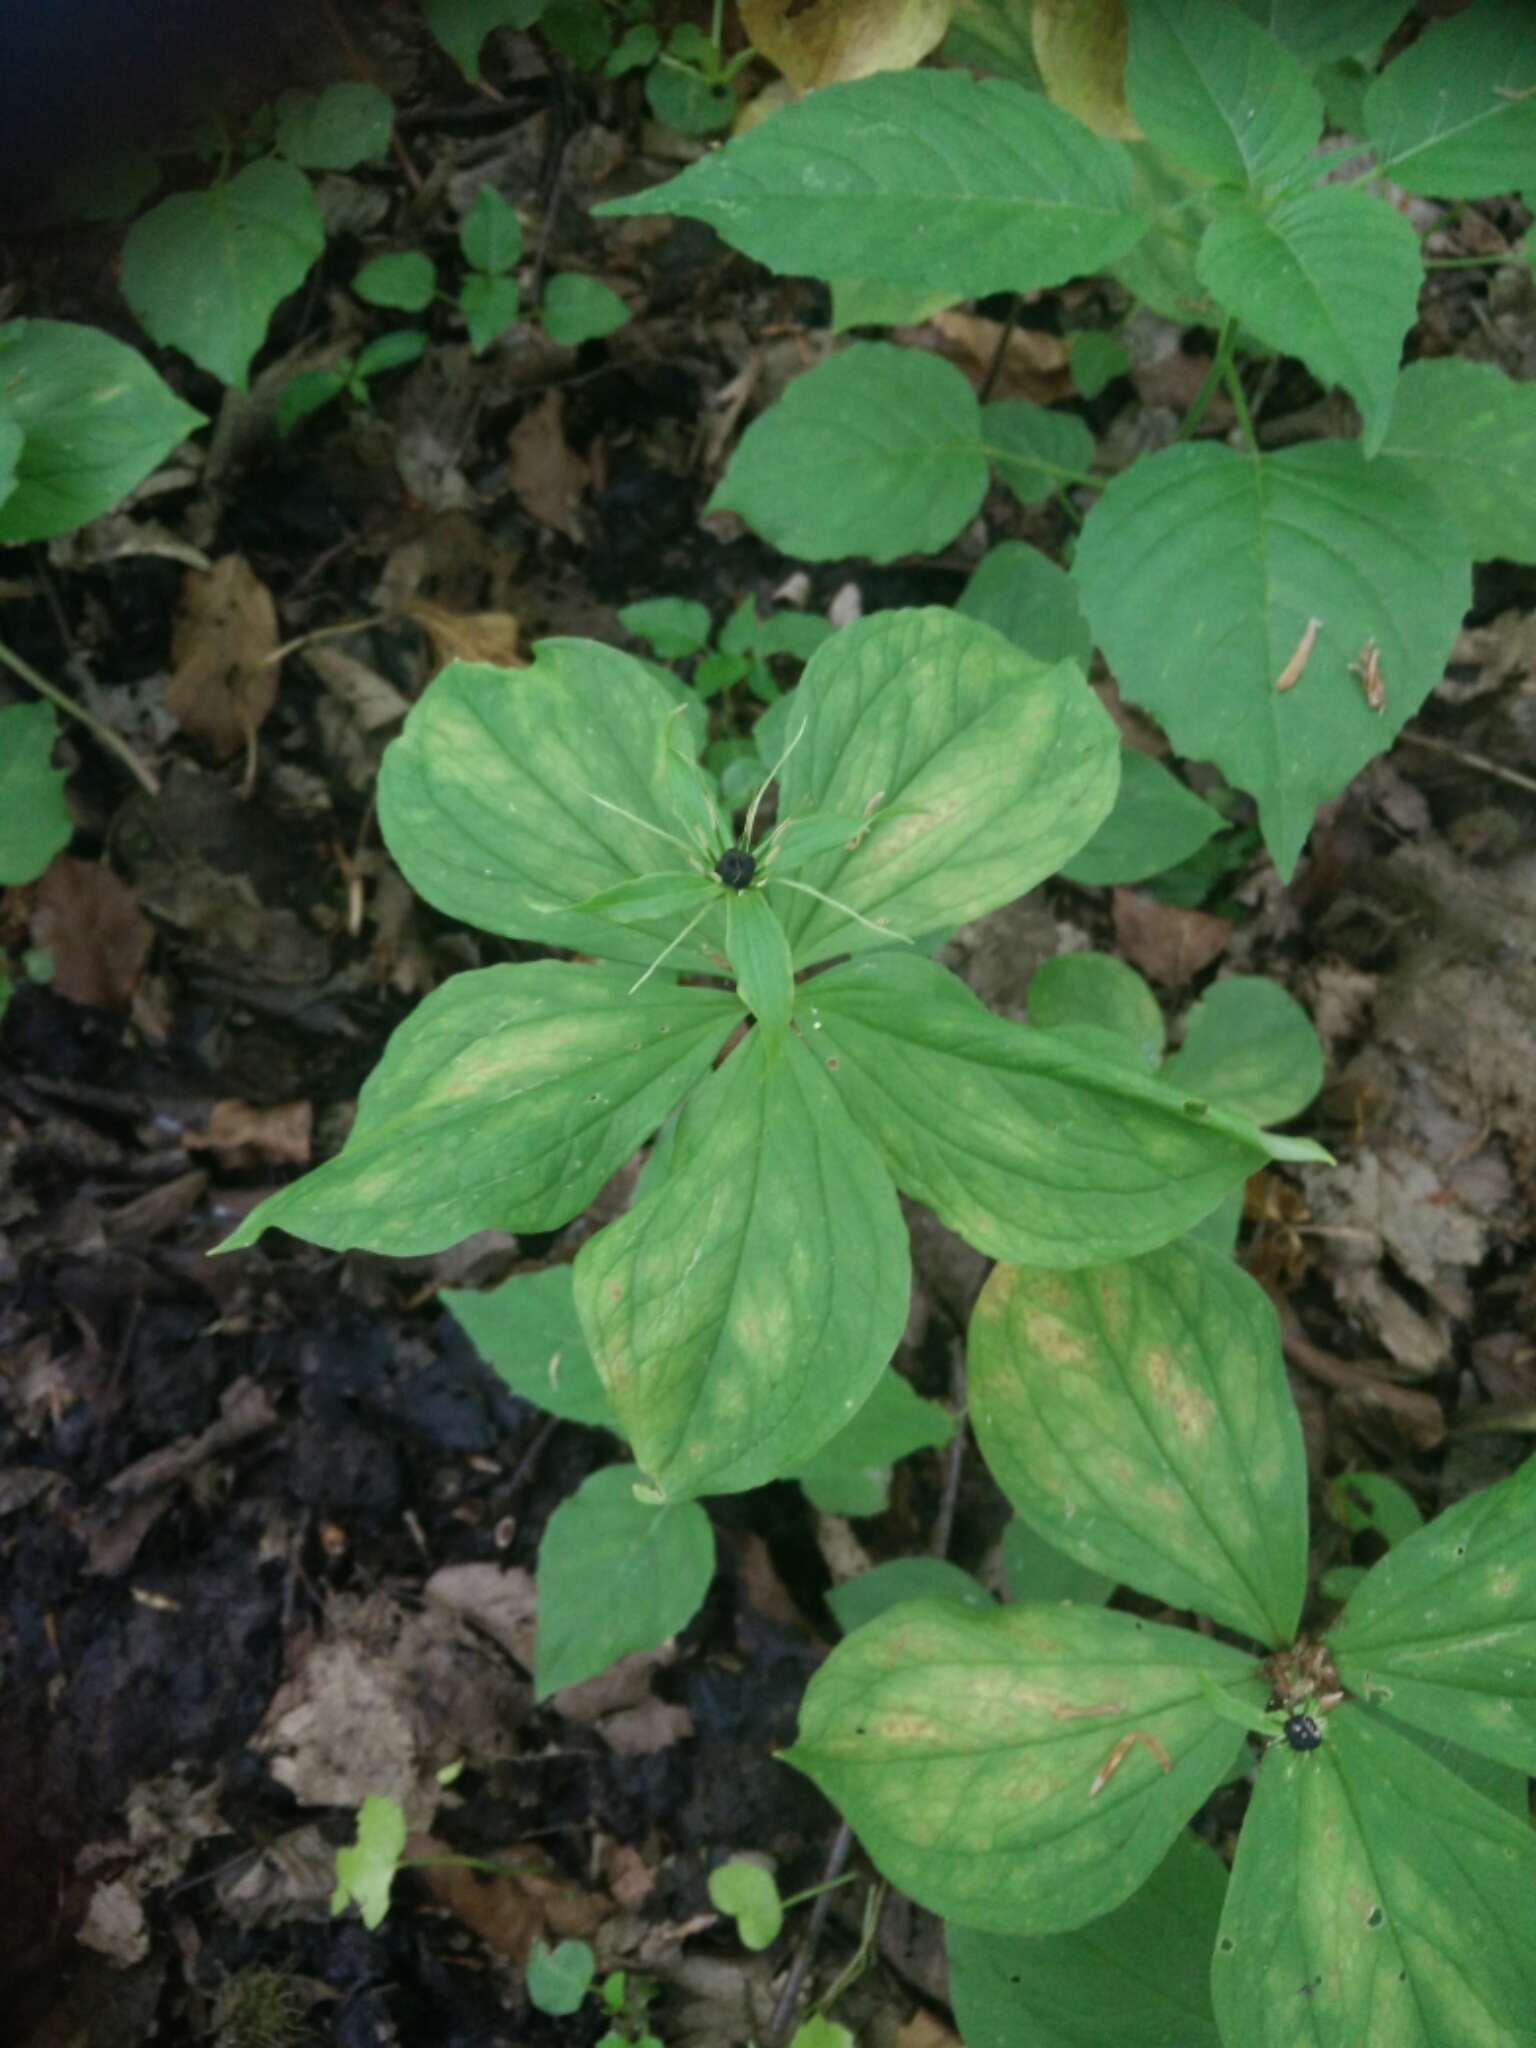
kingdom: Plantae
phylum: Tracheophyta
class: Liliopsida
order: Liliales
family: Melanthiaceae
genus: Paris
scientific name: Paris quadrifolia
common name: Herb-paris
